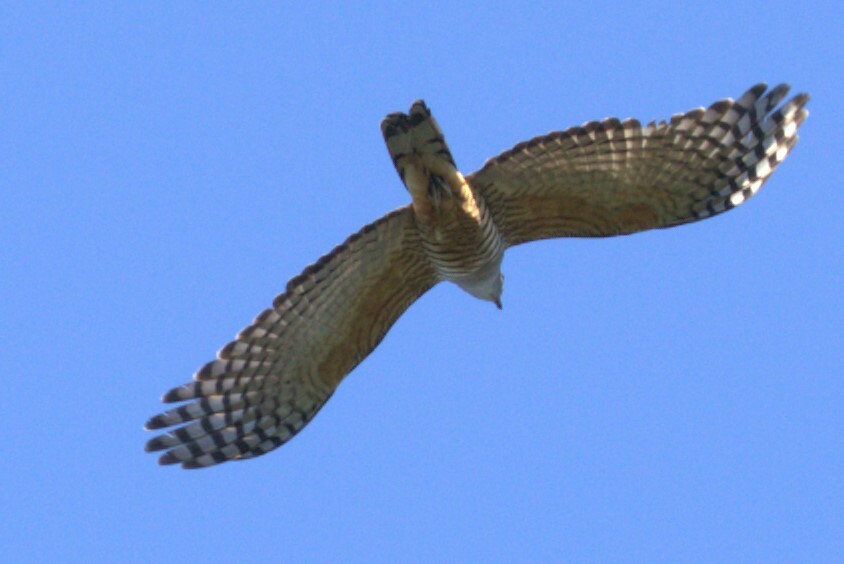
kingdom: Animalia
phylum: Chordata
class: Aves
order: Accipitriformes
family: Accipitridae
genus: Aviceda
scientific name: Aviceda subcristata
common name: Pacific baza
